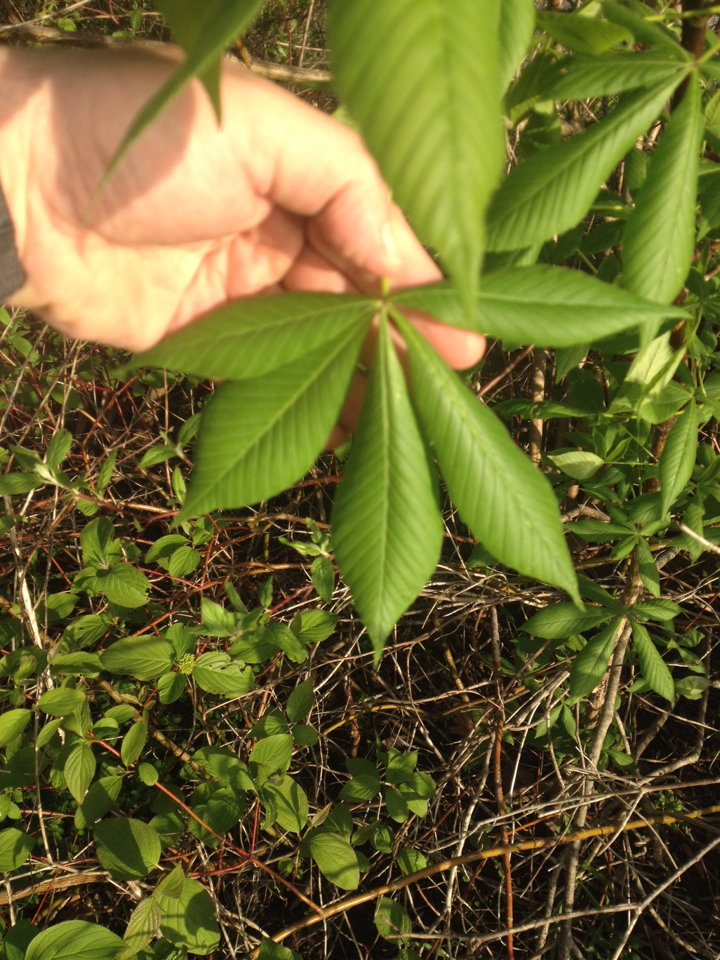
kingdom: Plantae
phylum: Tracheophyta
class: Magnoliopsida
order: Sapindales
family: Sapindaceae
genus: Aesculus
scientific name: Aesculus hippocastanum
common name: Horse-chestnut
